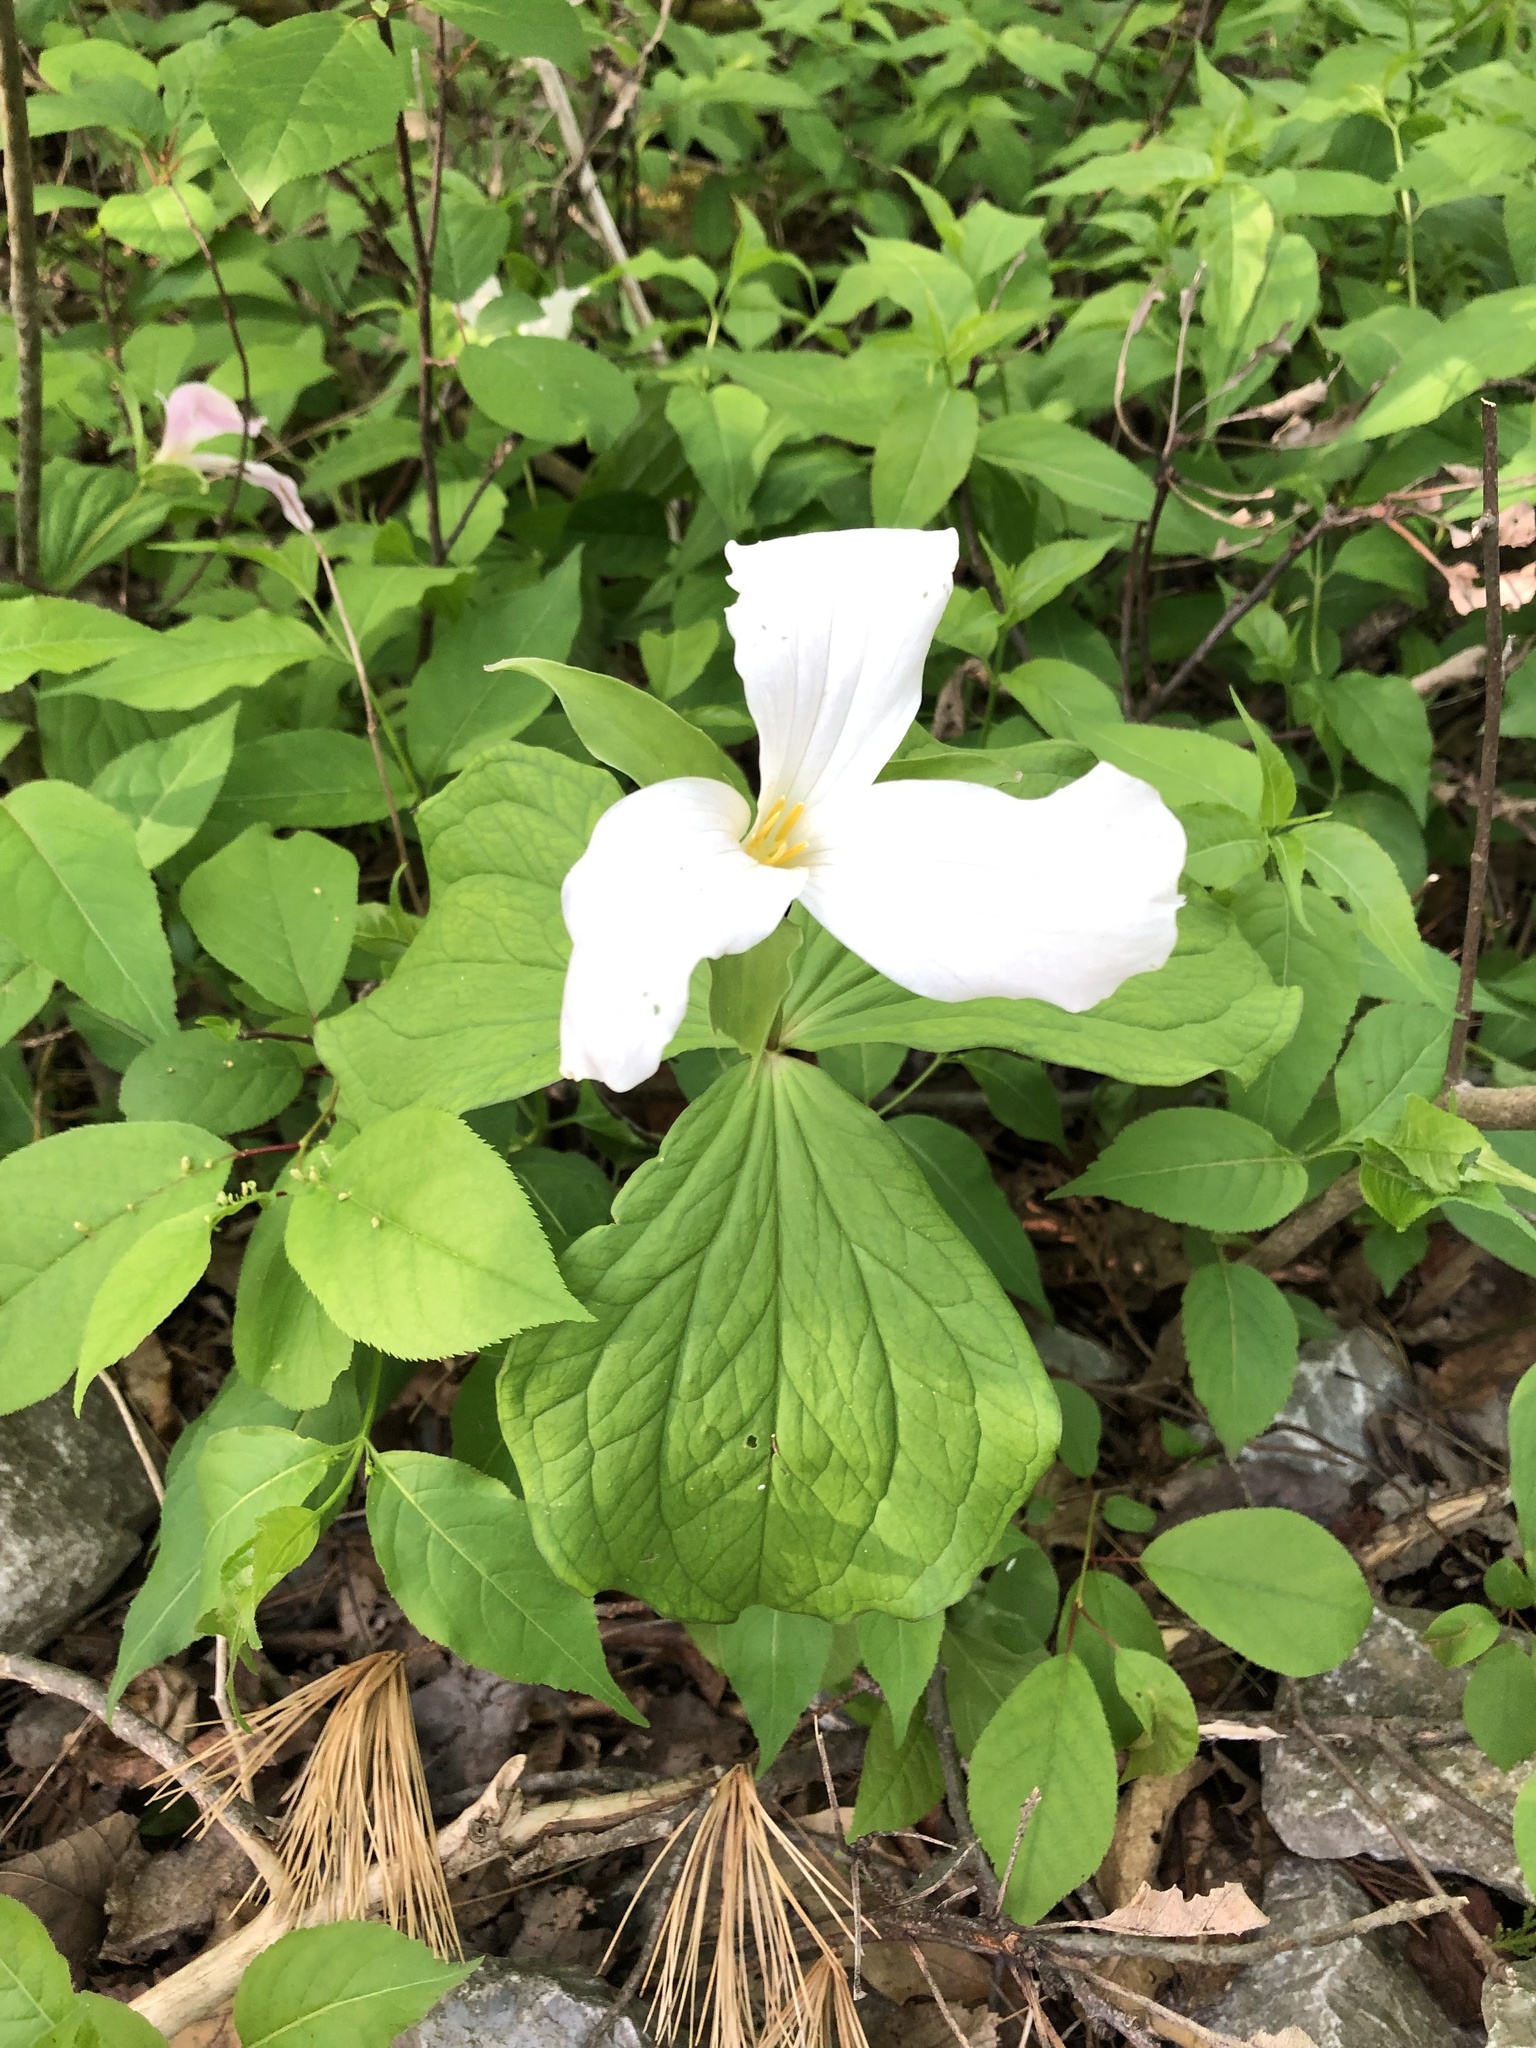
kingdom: Plantae
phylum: Tracheophyta
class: Liliopsida
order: Liliales
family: Melanthiaceae
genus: Trillium
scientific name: Trillium grandiflorum
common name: Great white trillium
